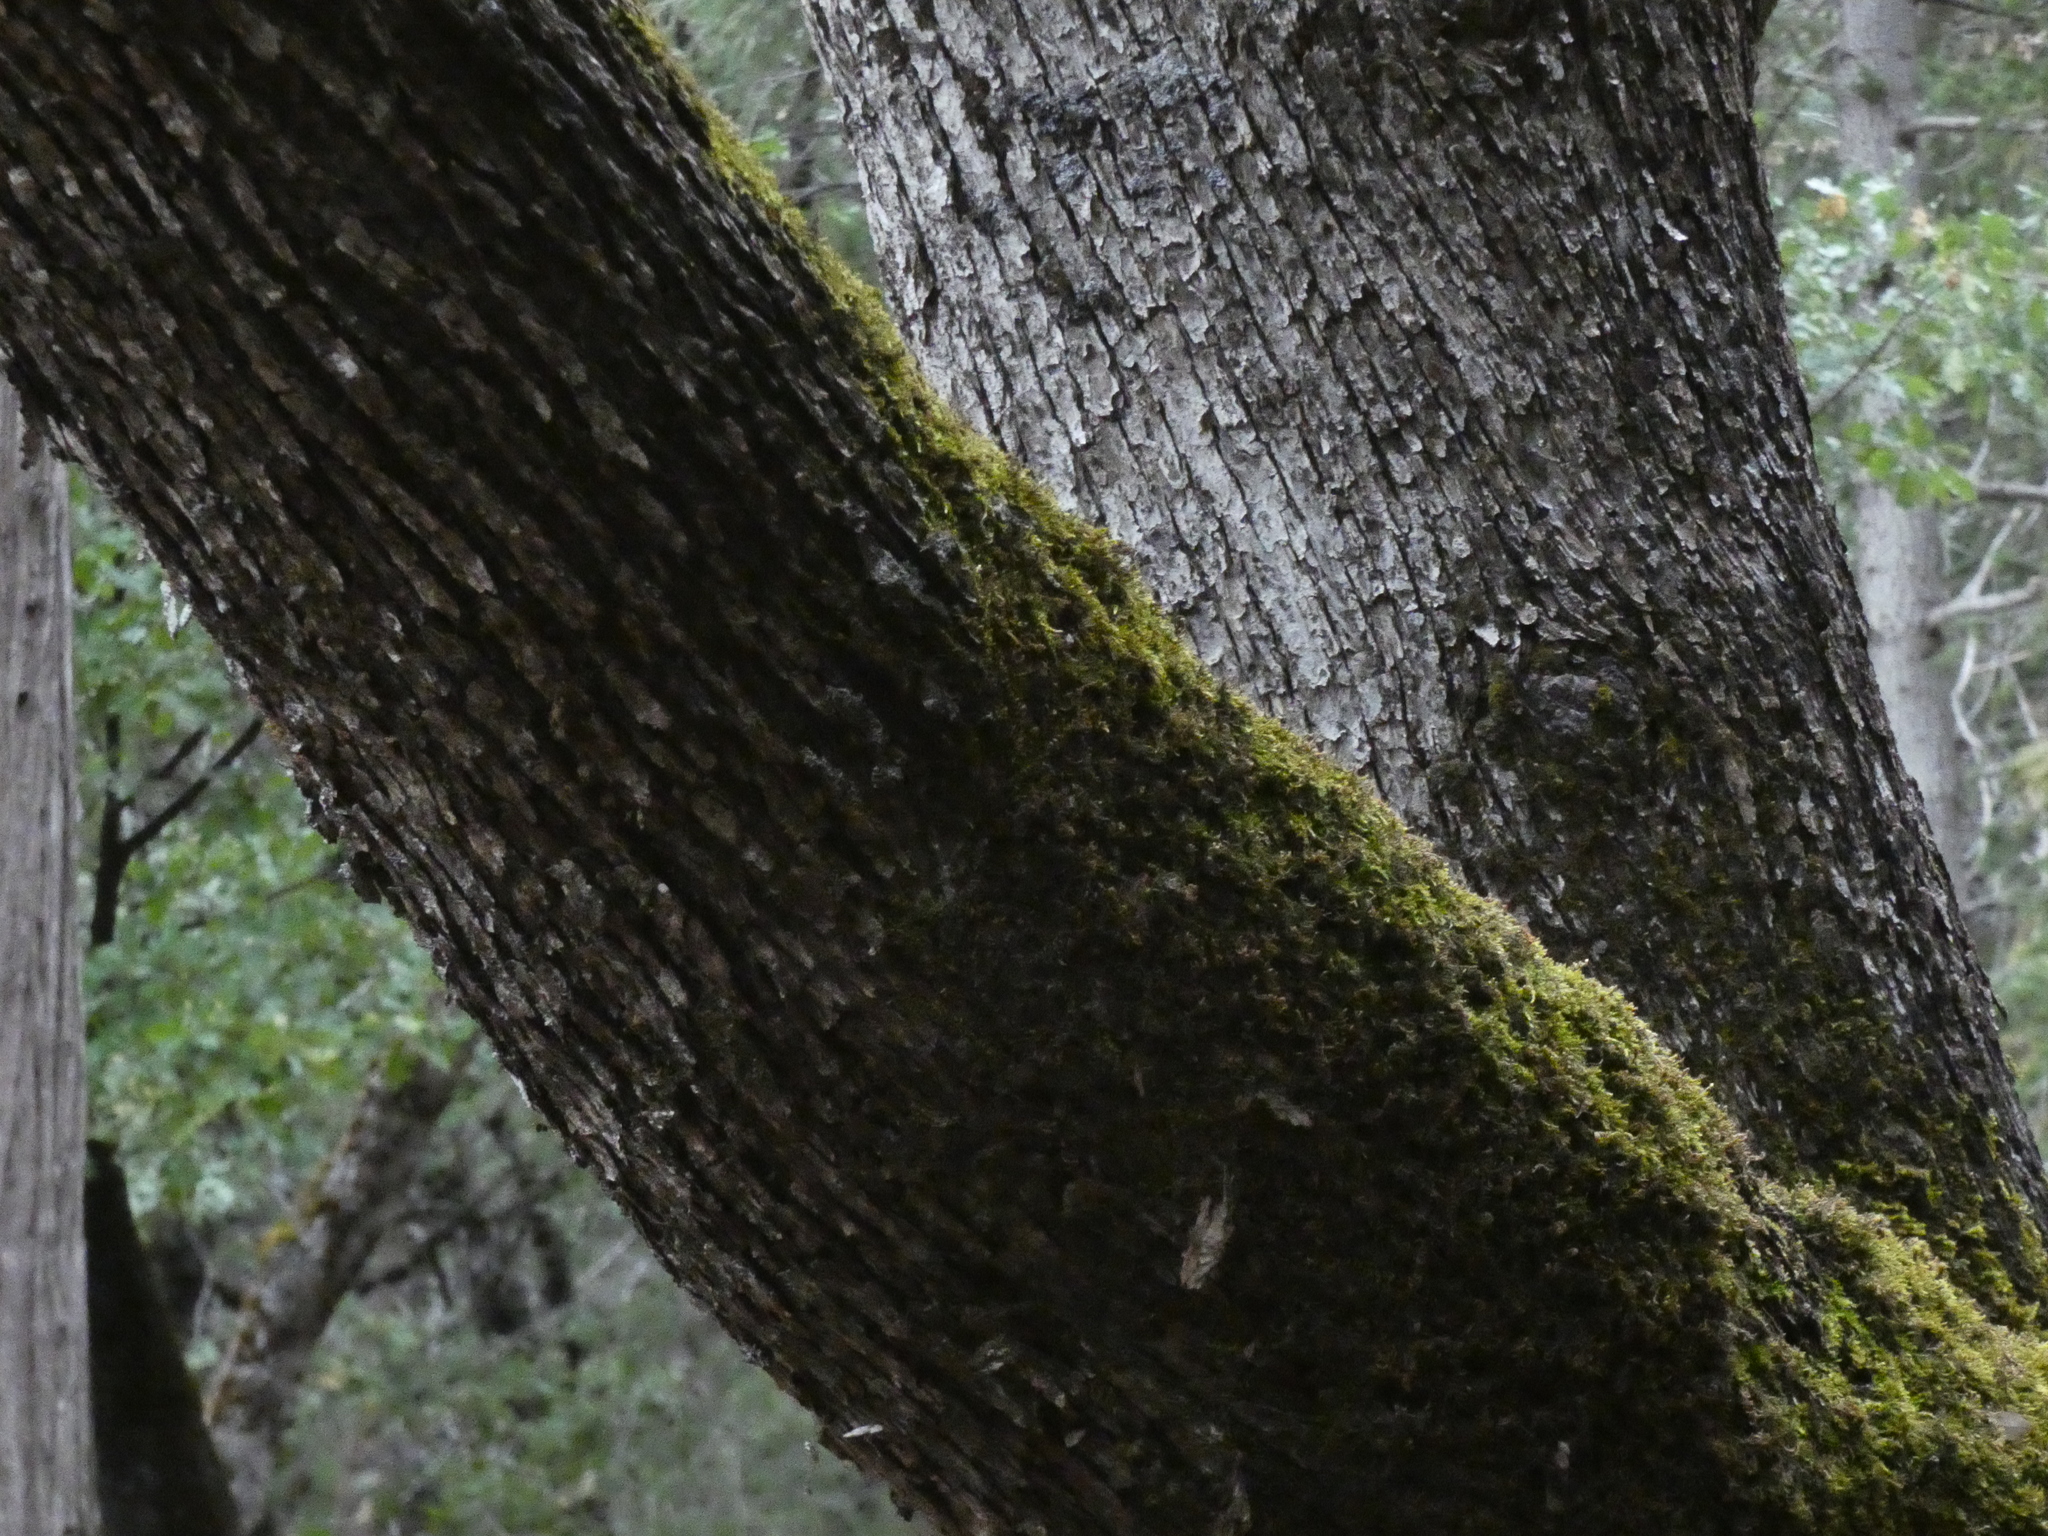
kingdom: Plantae
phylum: Tracheophyta
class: Magnoliopsida
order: Fagales
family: Fagaceae
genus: Quercus
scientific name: Quercus chrysolepis
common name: Canyon live oak
